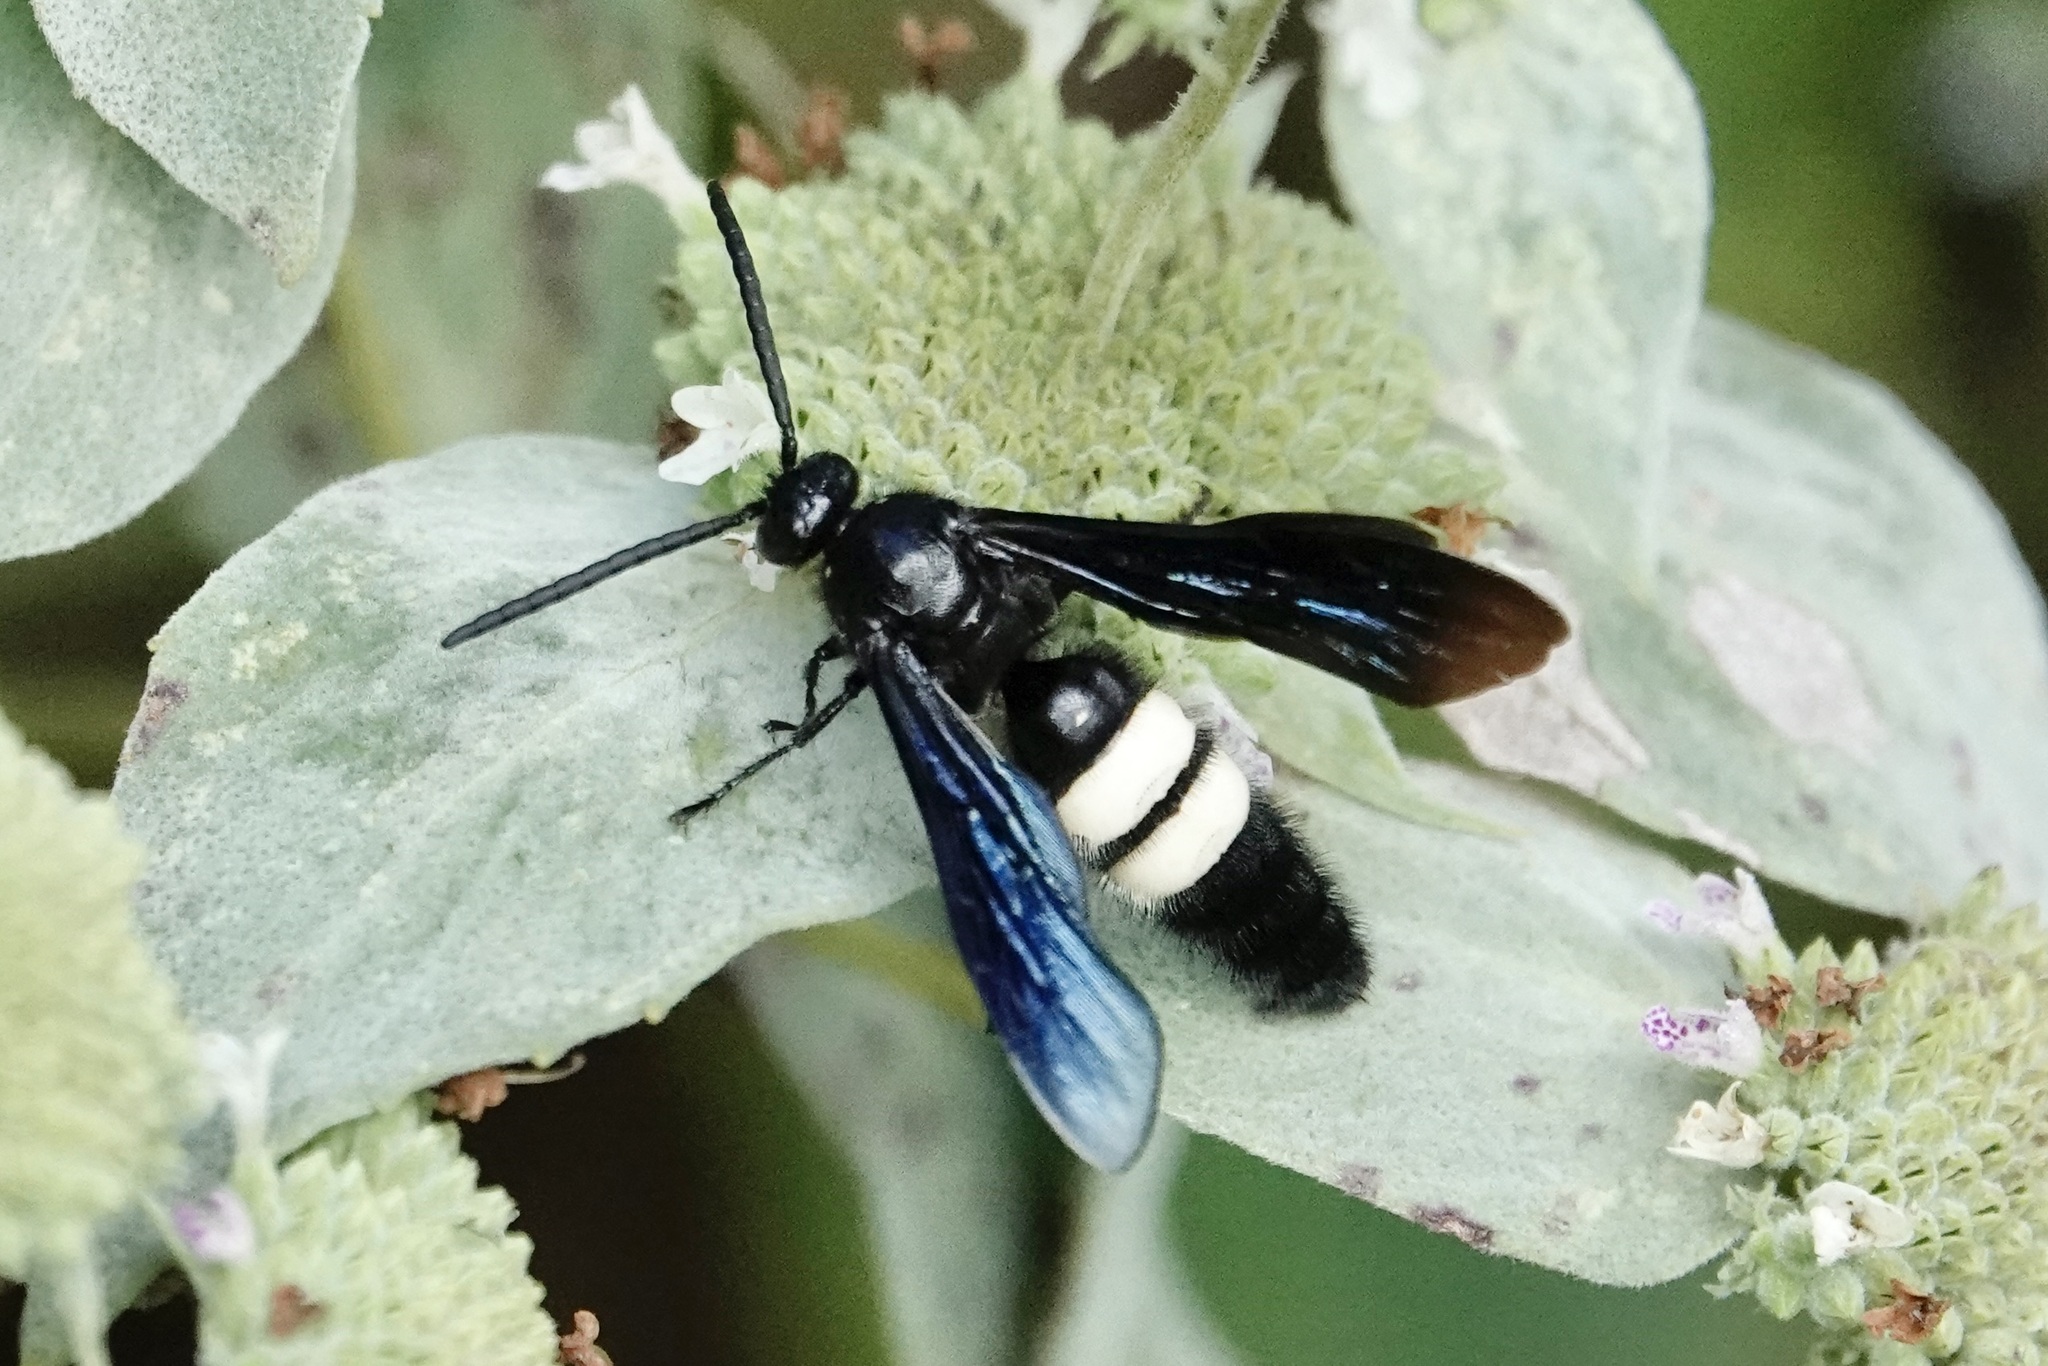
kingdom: Animalia
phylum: Arthropoda
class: Insecta
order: Hymenoptera
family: Scoliidae
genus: Scolia
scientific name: Scolia bicincta
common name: Double-banded scoliid wasp
